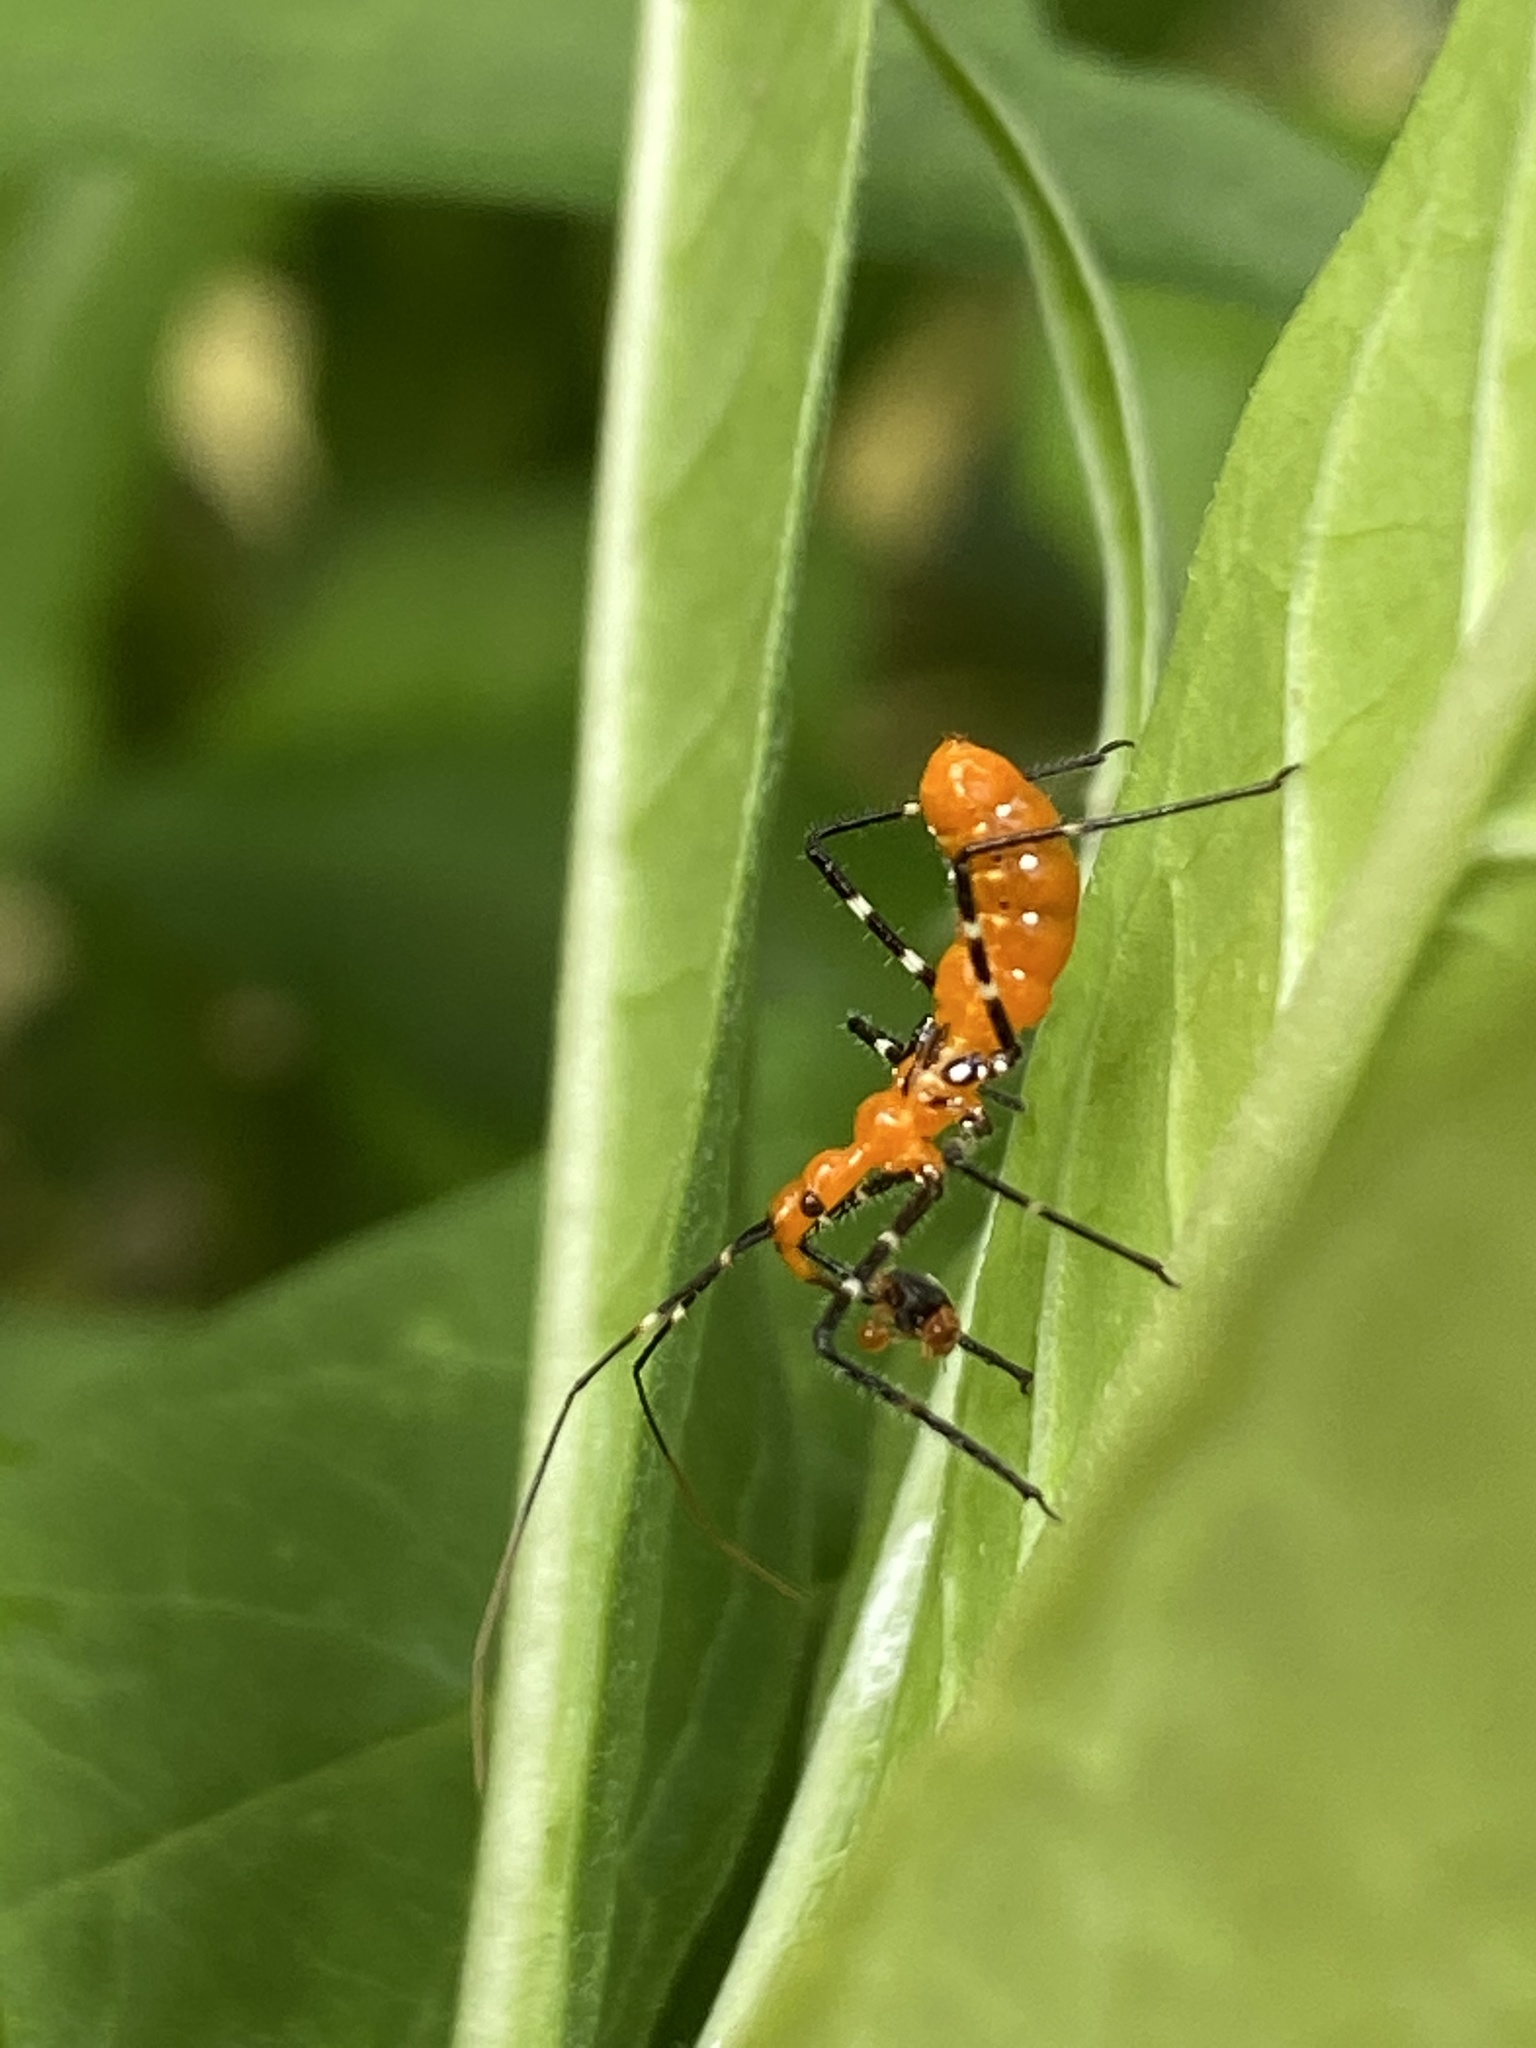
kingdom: Animalia
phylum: Arthropoda
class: Insecta
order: Hemiptera
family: Reduviidae
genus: Zelus
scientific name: Zelus longipes
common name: Milkweed assassin bug
